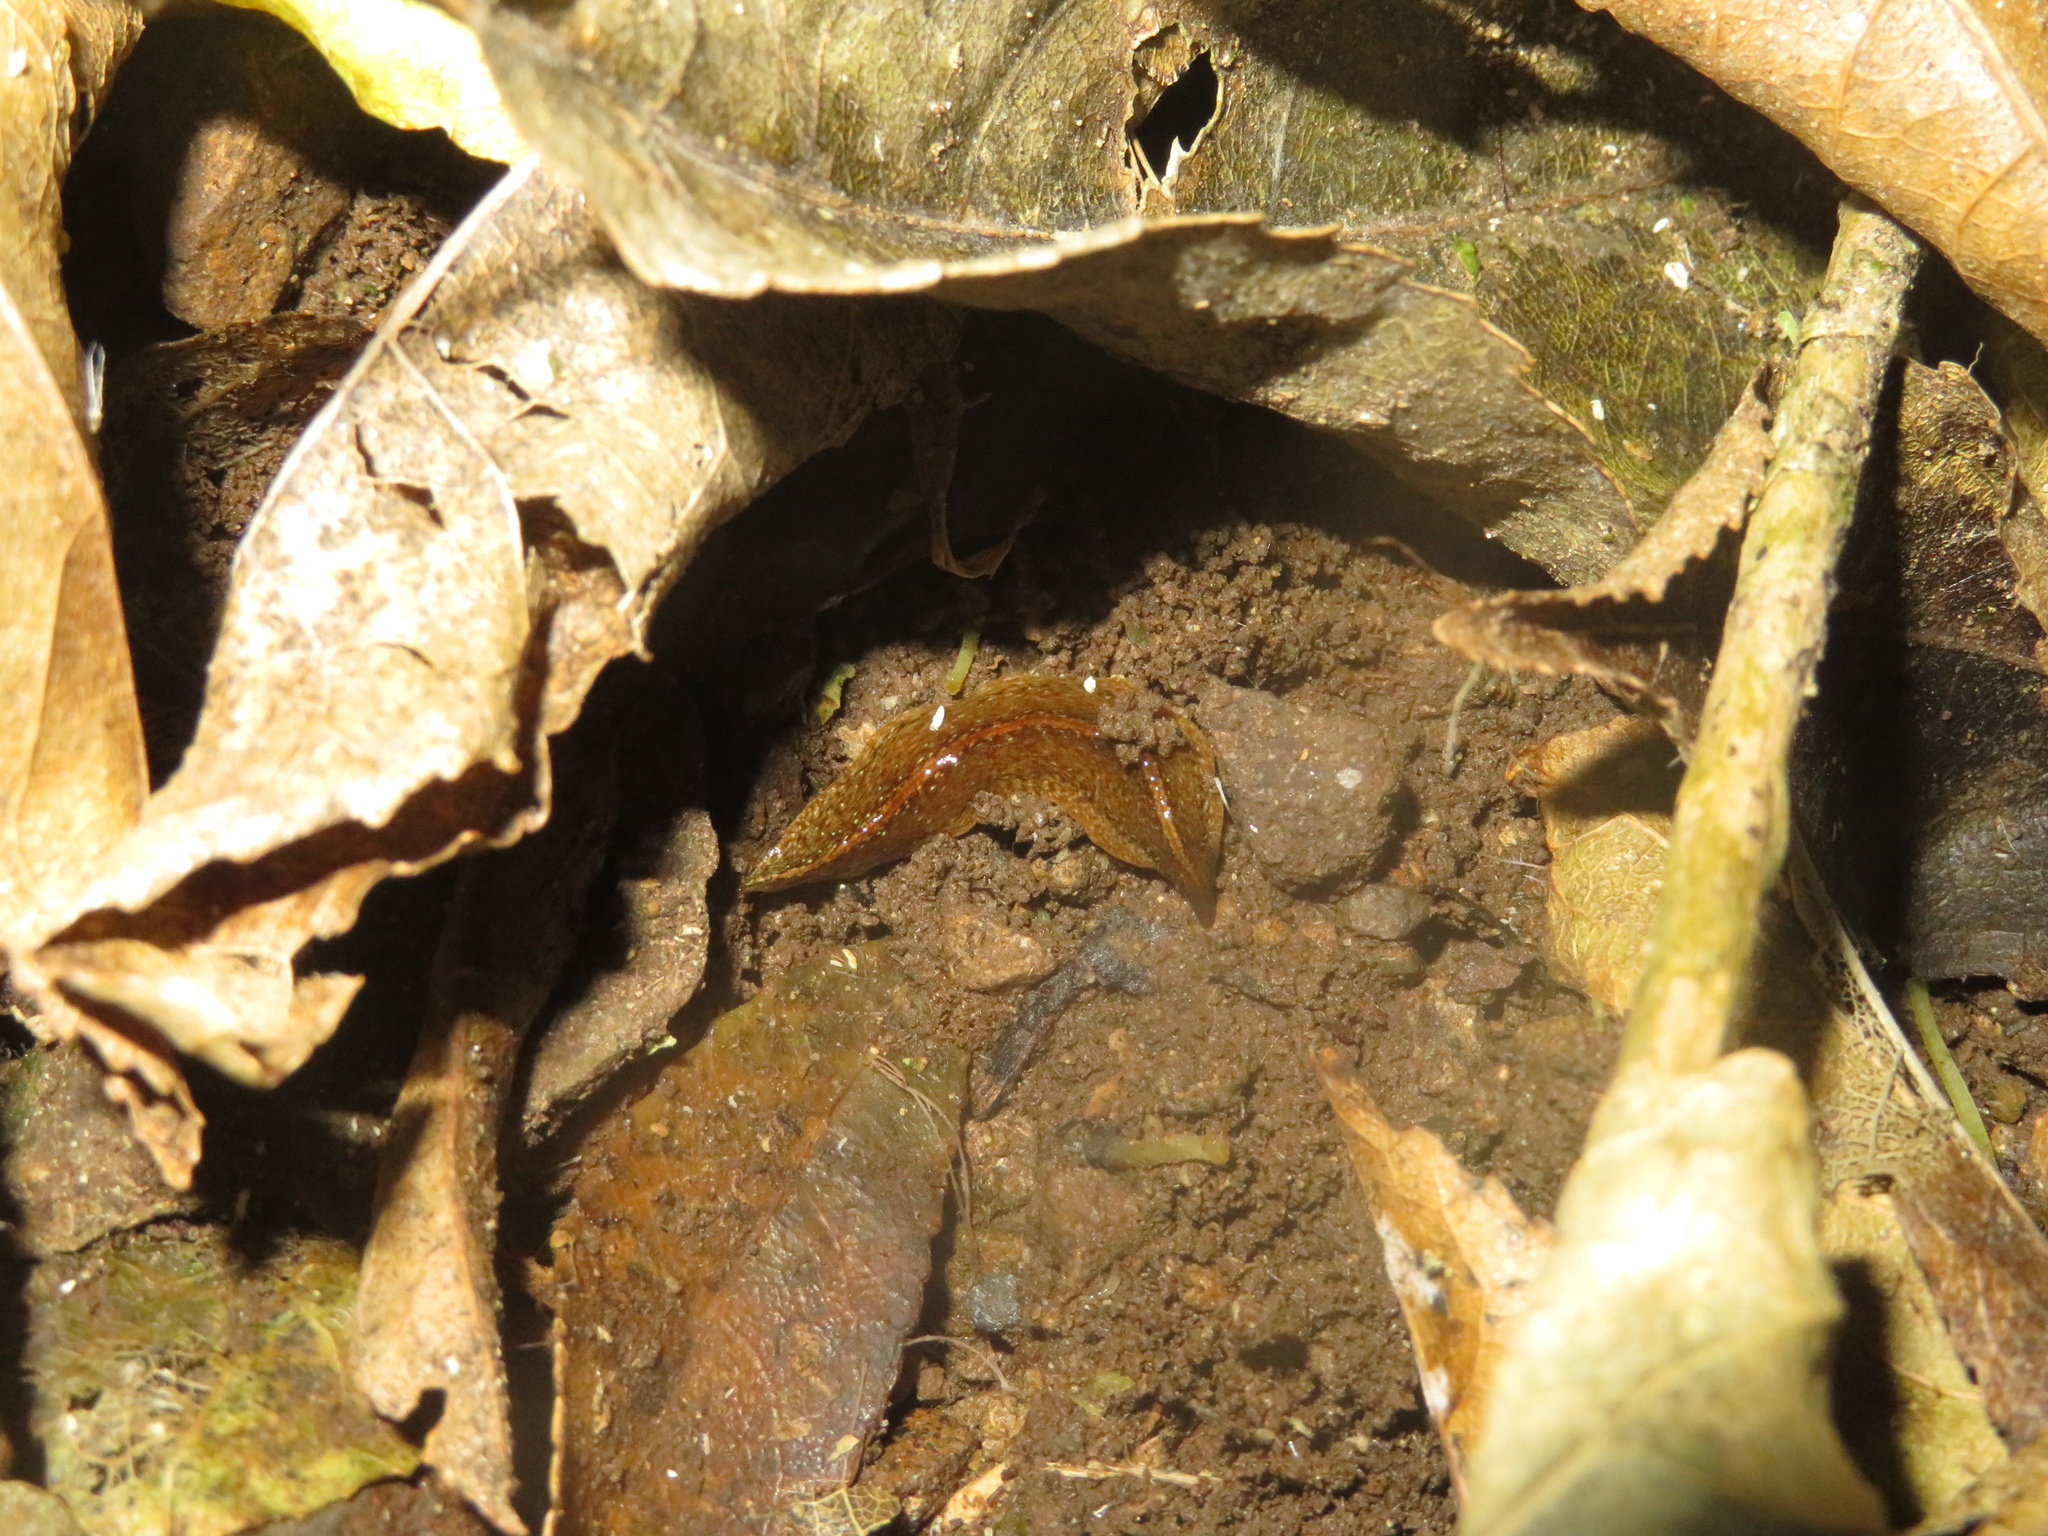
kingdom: Animalia
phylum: Platyhelminthes
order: Tricladida
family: Geoplanidae
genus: Newzealandia
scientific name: Newzealandia graffii
